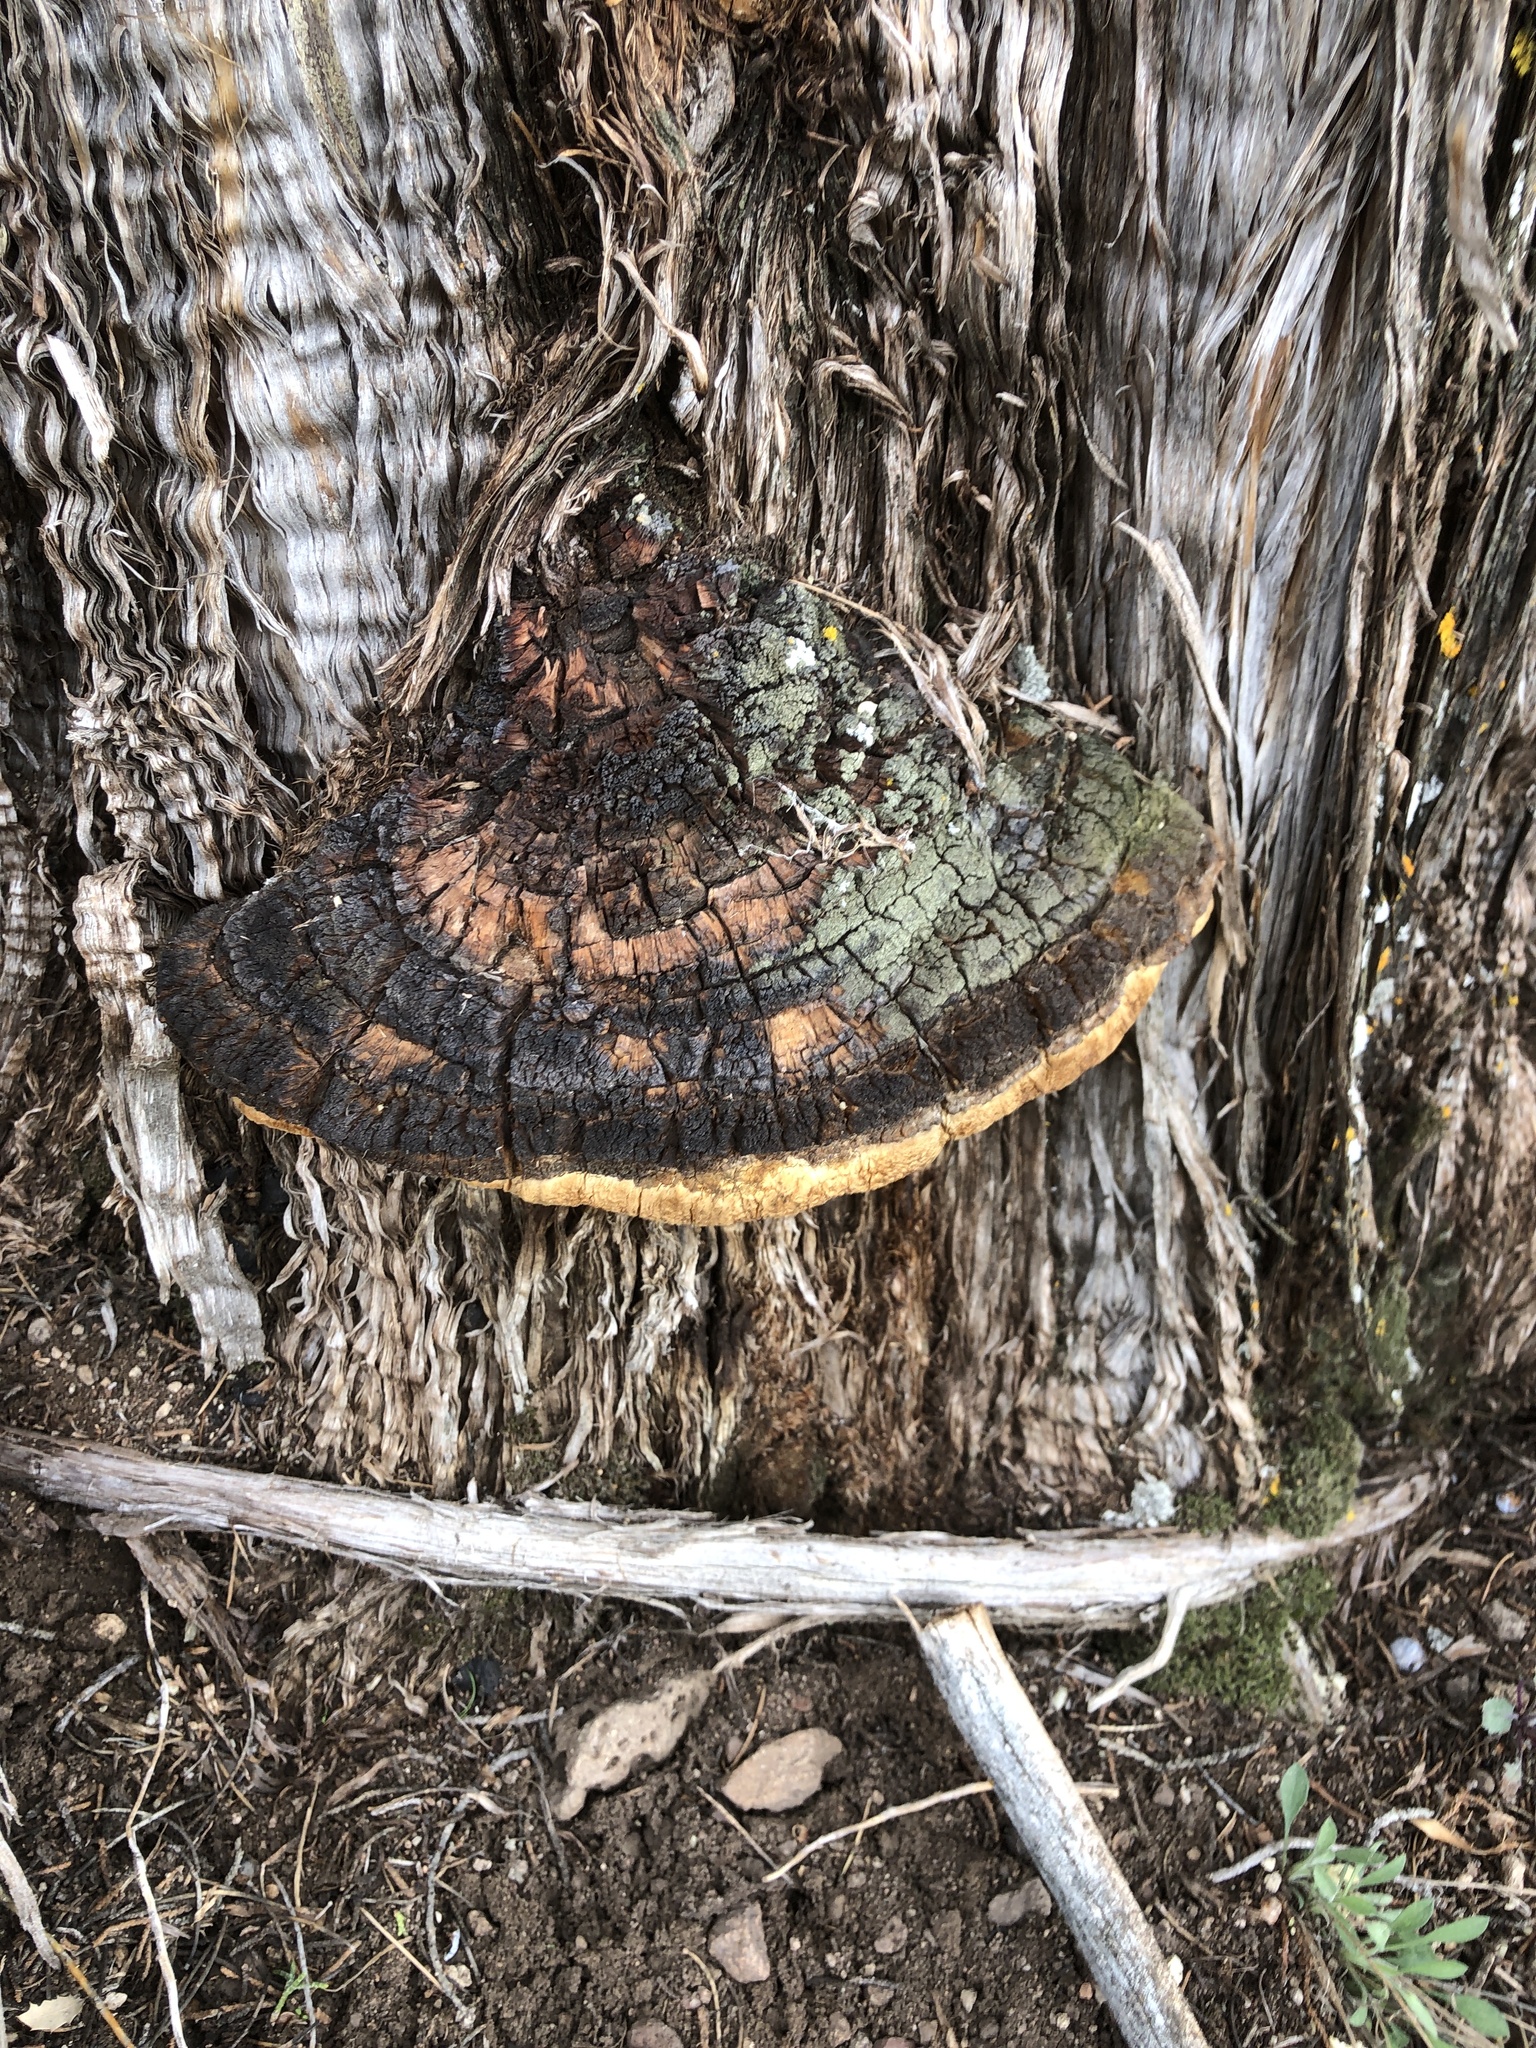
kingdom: Fungi
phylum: Basidiomycota
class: Agaricomycetes
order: Polyporales
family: Polyporaceae
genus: Pyrofomes
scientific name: Pyrofomes juniperinus
